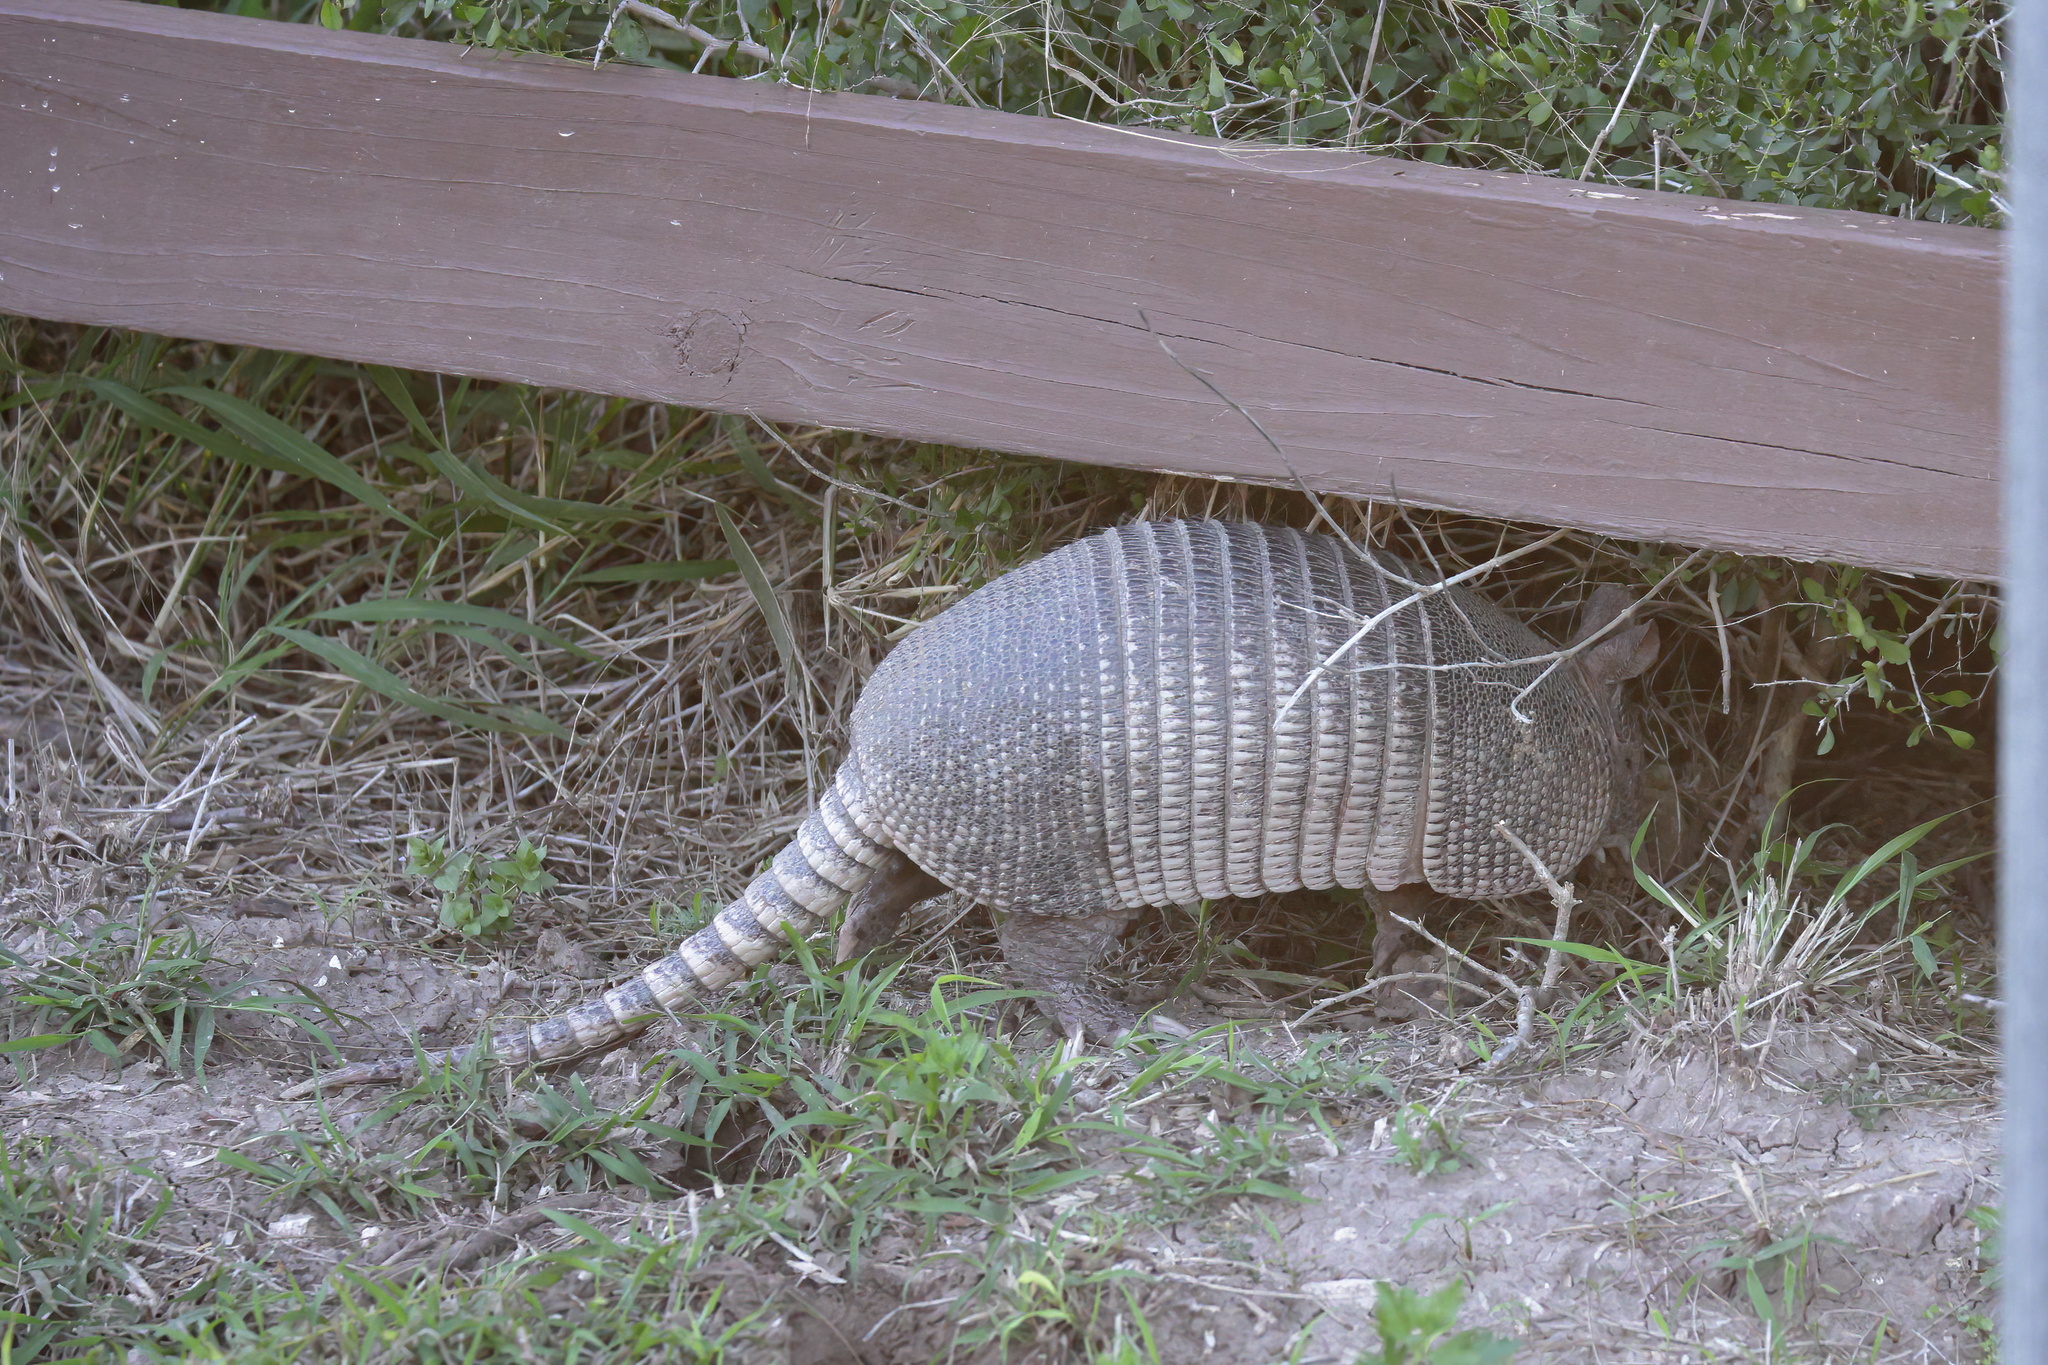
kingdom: Animalia
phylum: Chordata
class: Mammalia
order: Cingulata
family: Dasypodidae
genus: Dasypus
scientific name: Dasypus novemcinctus
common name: Nine-banded armadillo
